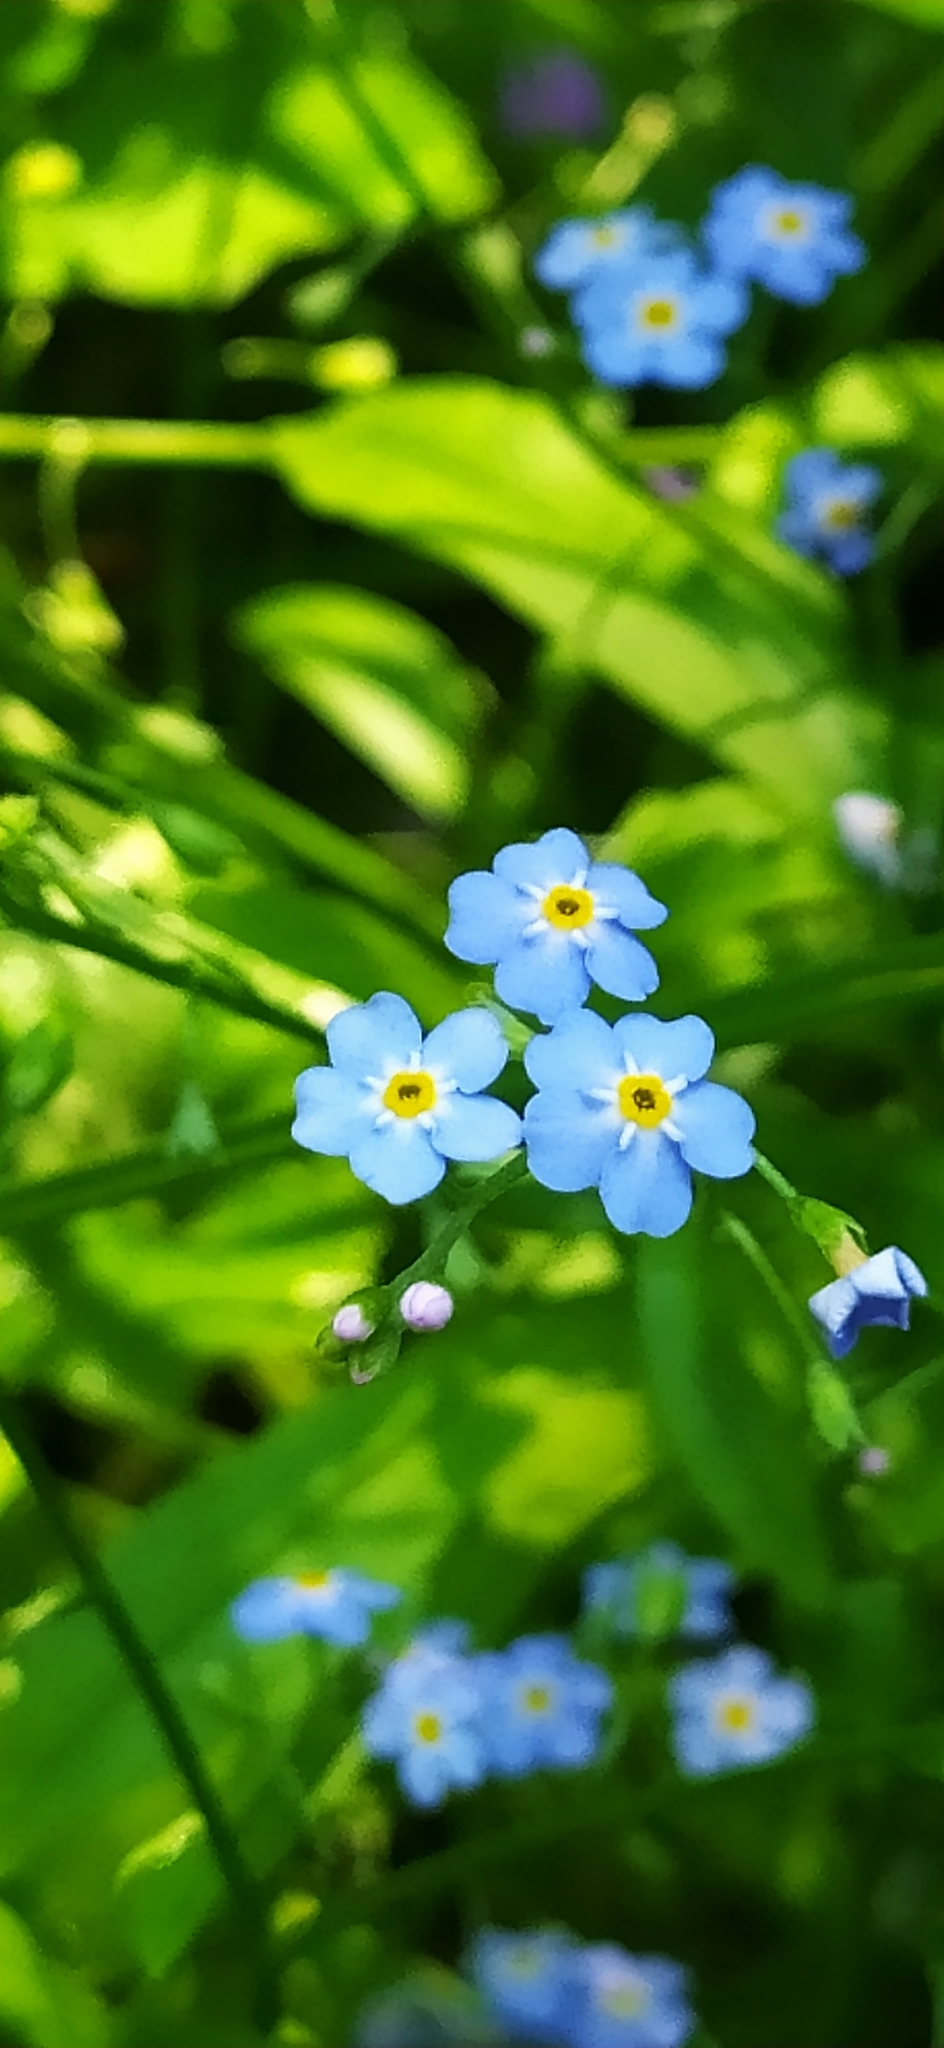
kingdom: Plantae
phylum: Tracheophyta
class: Magnoliopsida
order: Boraginales
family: Boraginaceae
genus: Myosotis
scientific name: Myosotis scorpioides
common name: Water forget-me-not
